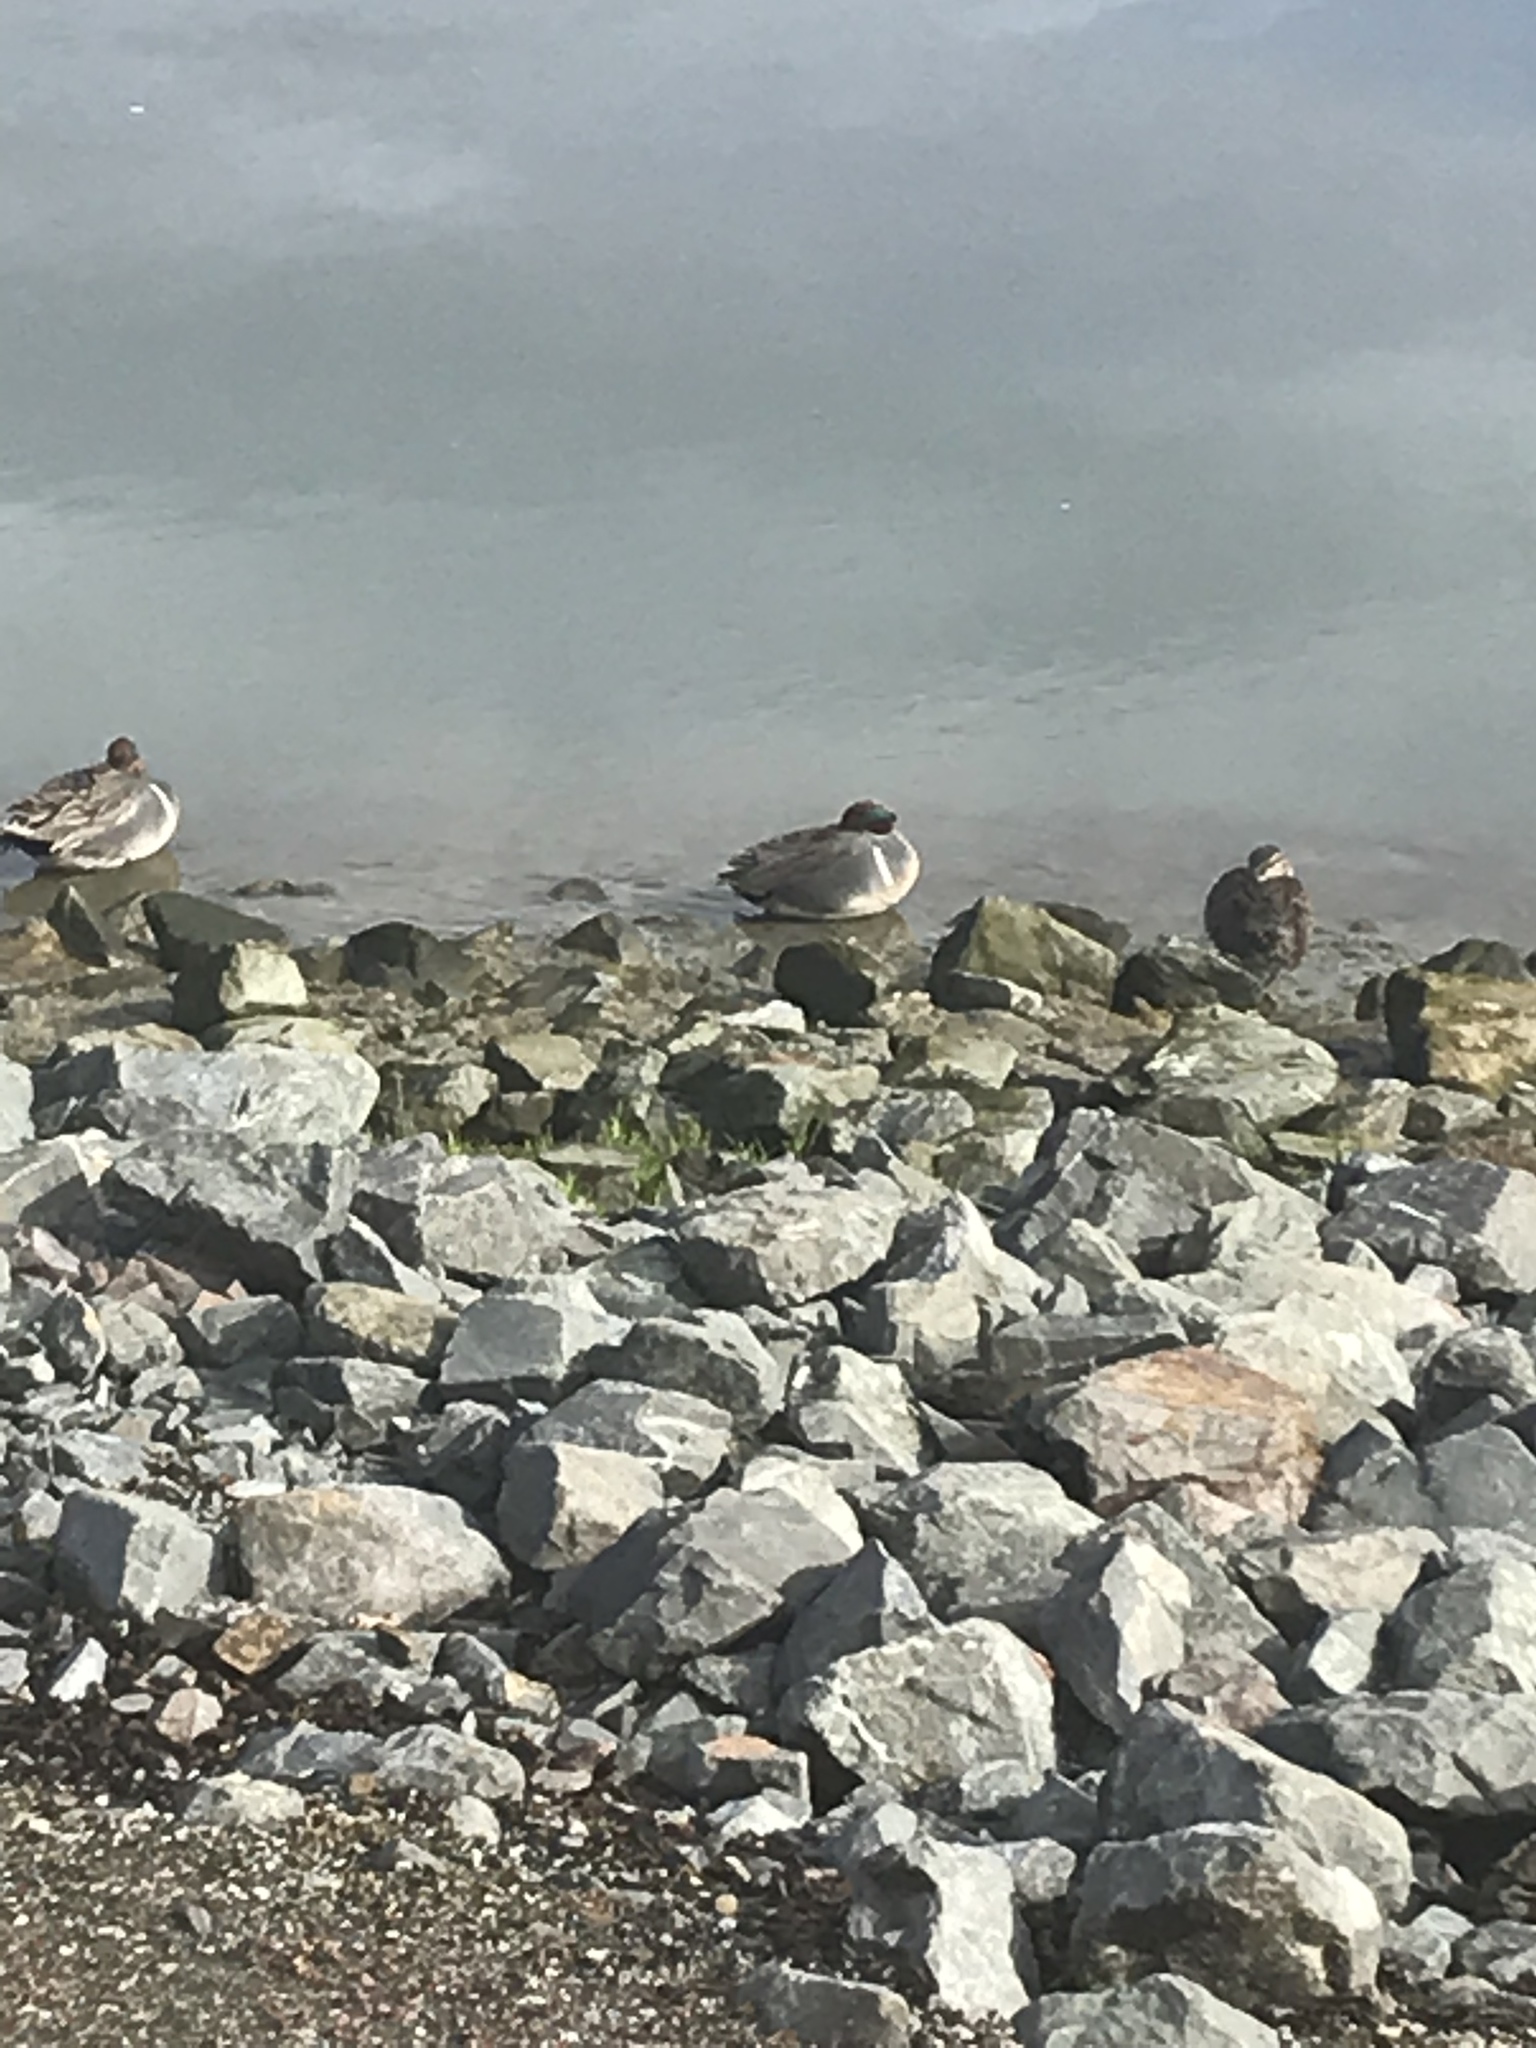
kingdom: Animalia
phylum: Chordata
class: Aves
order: Anseriformes
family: Anatidae
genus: Anas
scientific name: Anas crecca
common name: Eurasian teal
